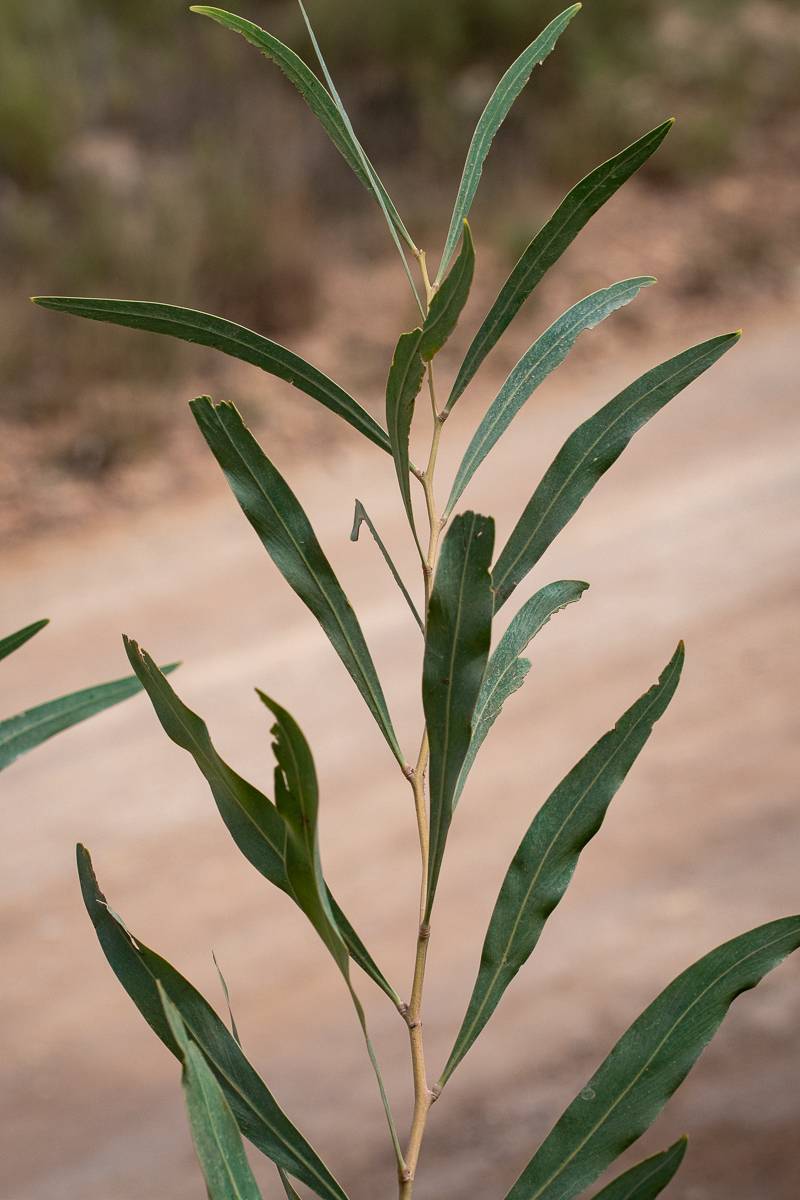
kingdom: Plantae
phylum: Tracheophyta
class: Magnoliopsida
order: Fabales
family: Fabaceae
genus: Acacia
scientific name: Acacia saligna
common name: Orange wattle
